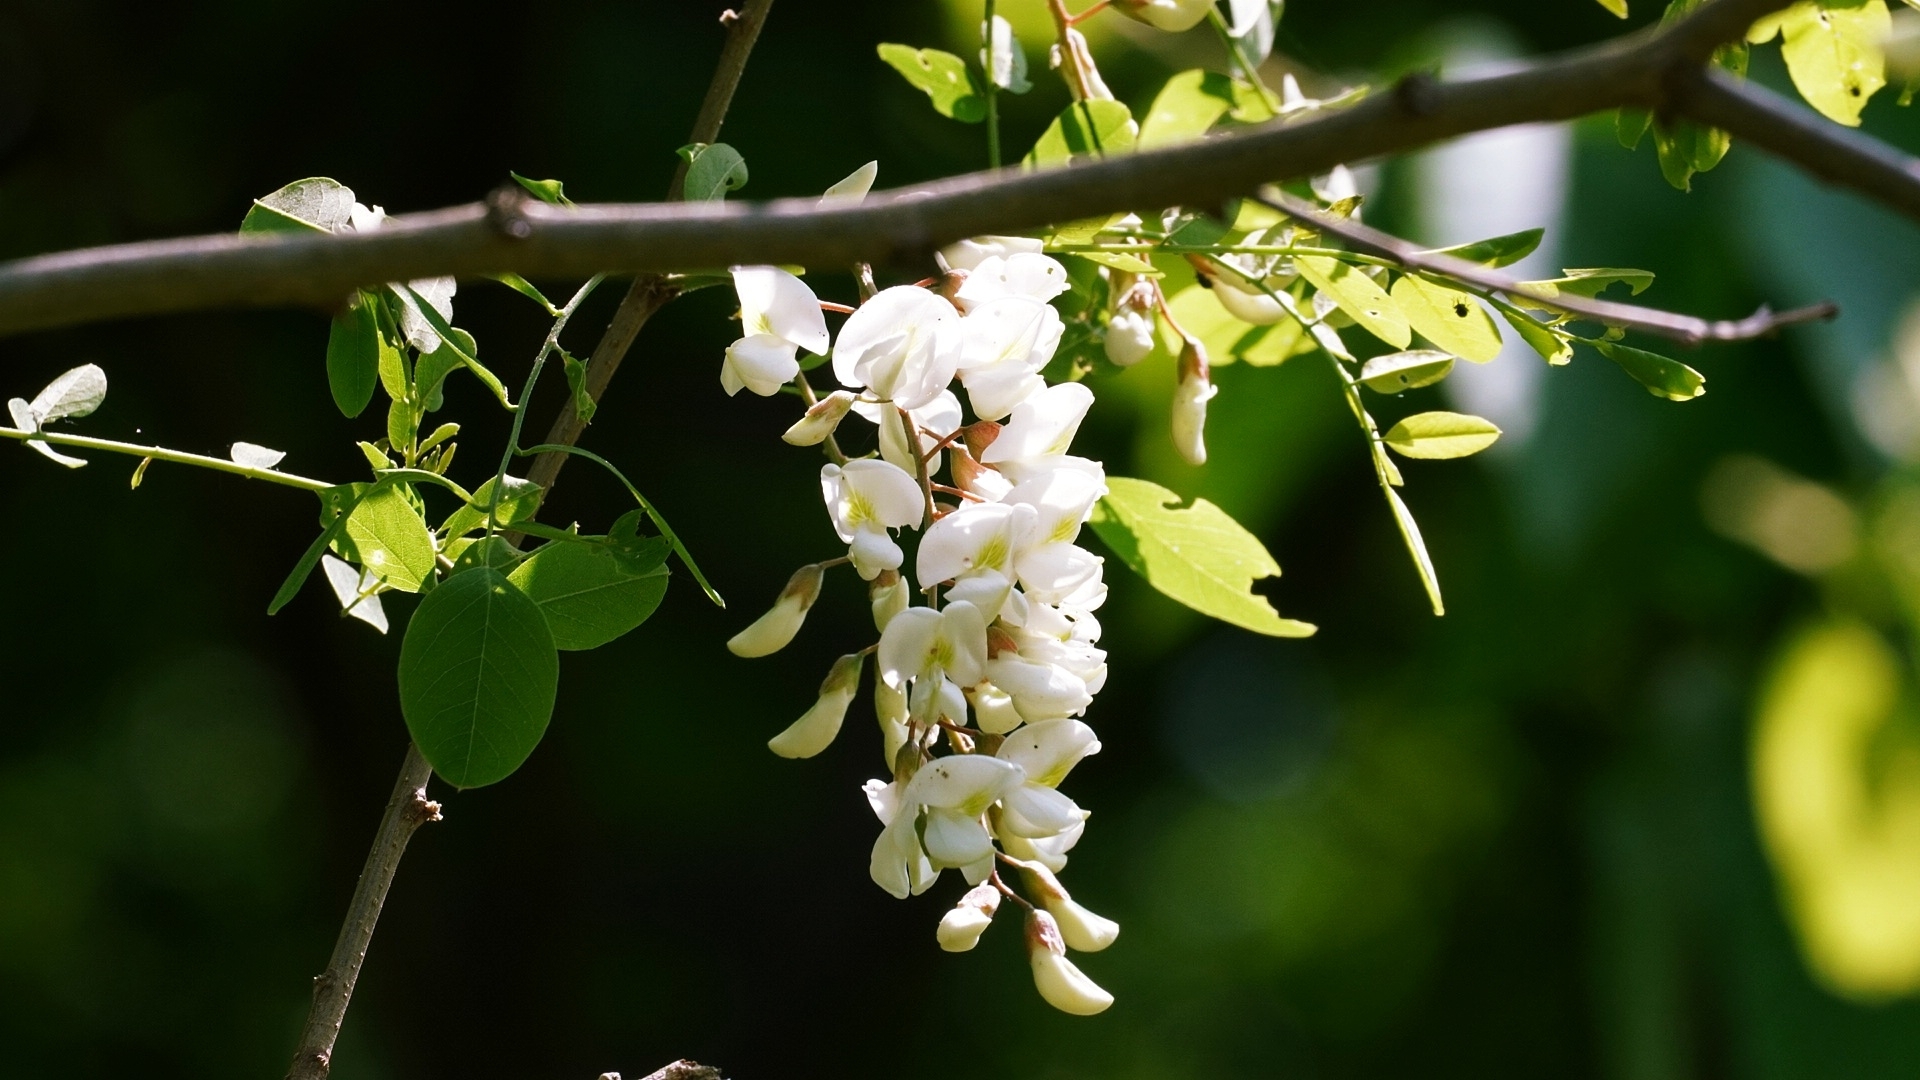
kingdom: Plantae
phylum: Tracheophyta
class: Magnoliopsida
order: Fabales
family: Fabaceae
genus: Robinia
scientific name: Robinia pseudoacacia
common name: Black locust
